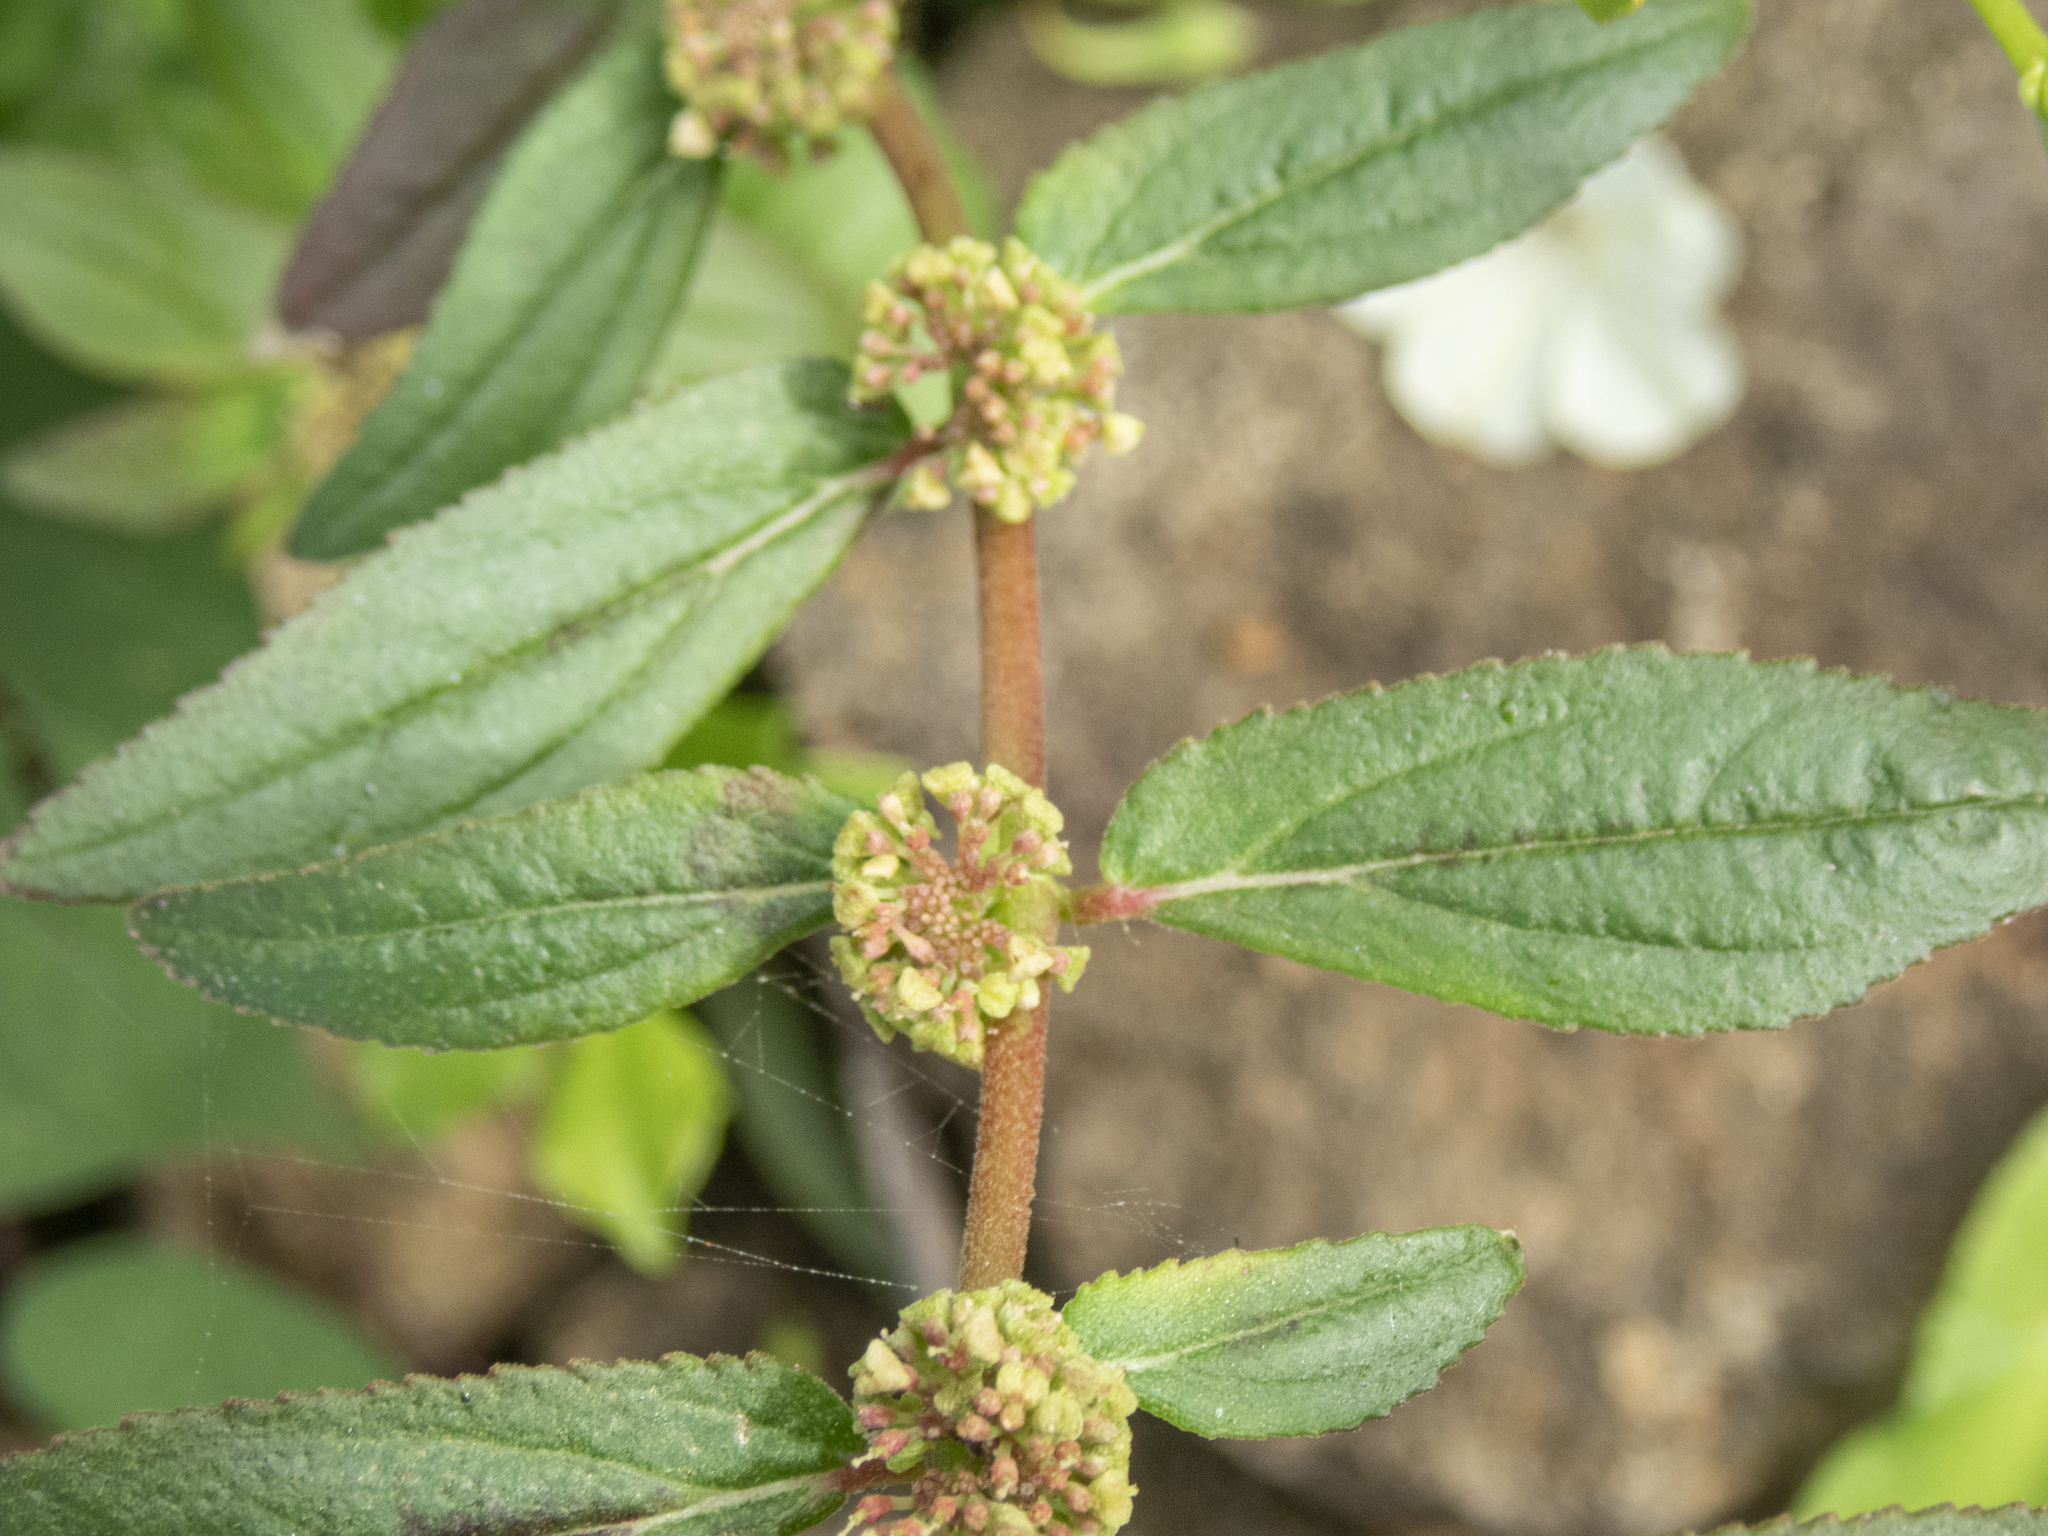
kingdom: Plantae
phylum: Tracheophyta
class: Magnoliopsida
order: Malpighiales
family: Euphorbiaceae
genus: Euphorbia
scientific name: Euphorbia hirta
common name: Pillpod sandmat
